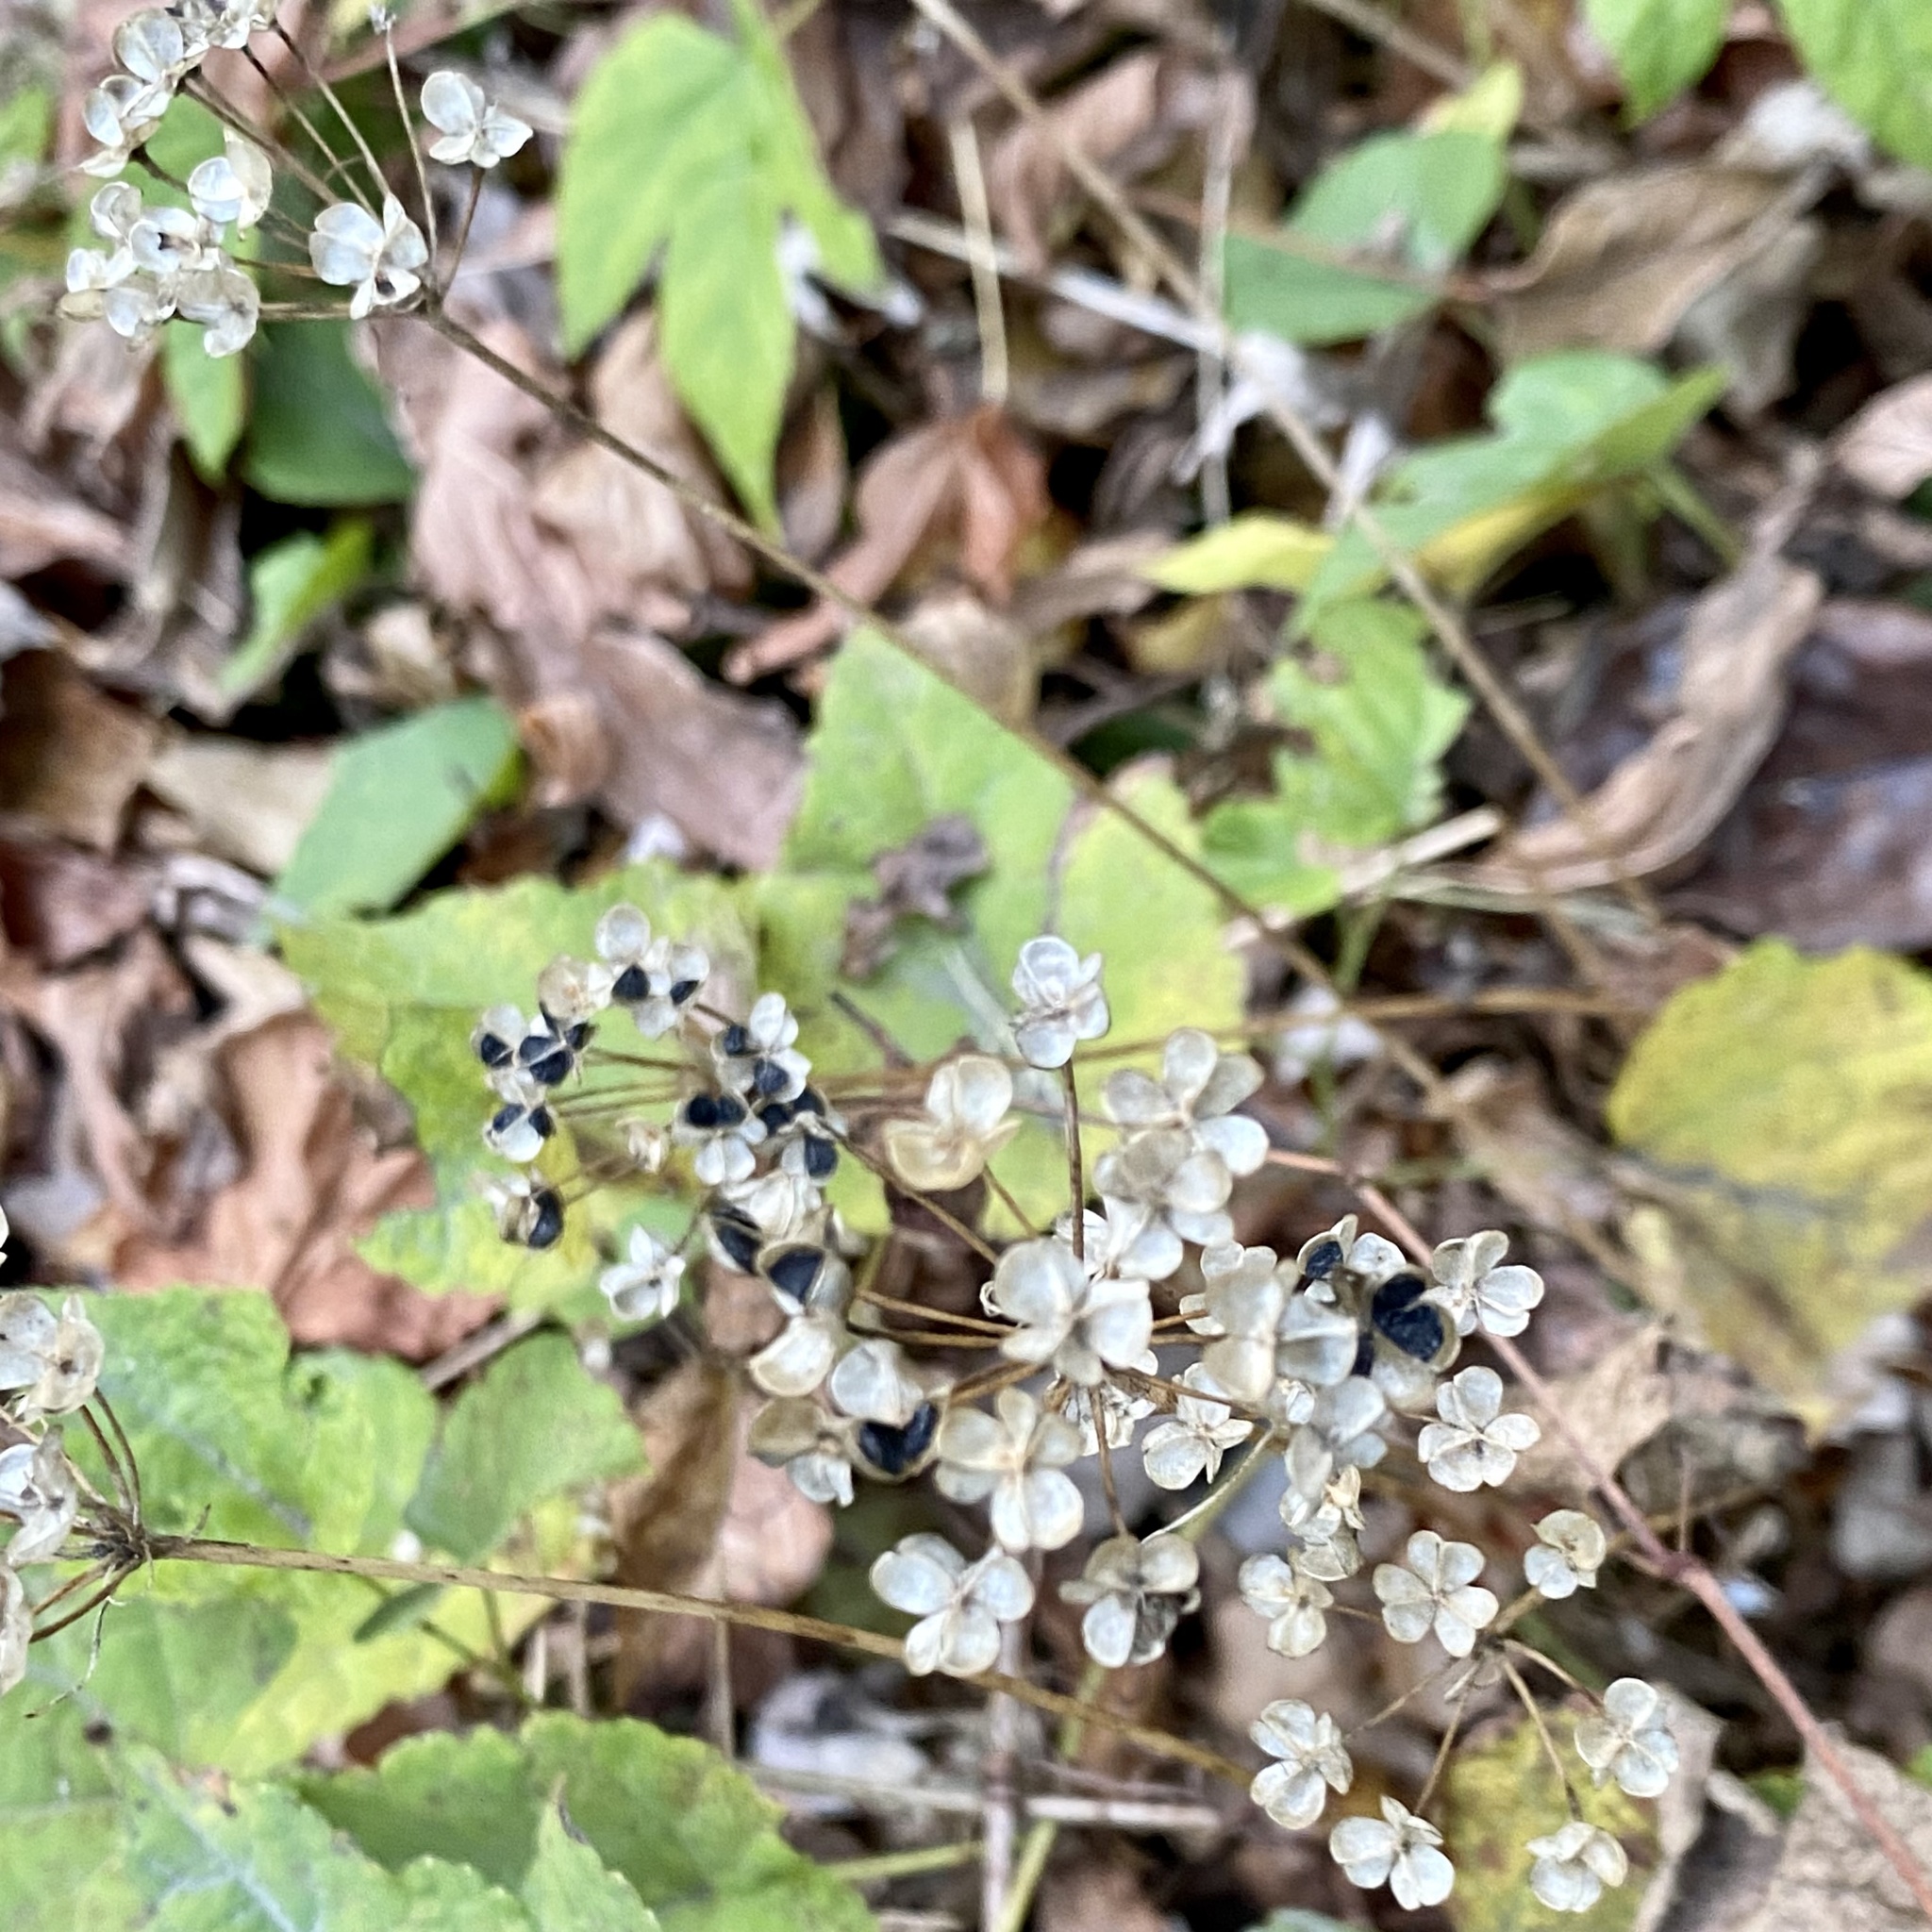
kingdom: Plantae
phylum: Tracheophyta
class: Liliopsida
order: Asparagales
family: Amaryllidaceae
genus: Allium
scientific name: Allium tuberosum
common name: Chinese chives
